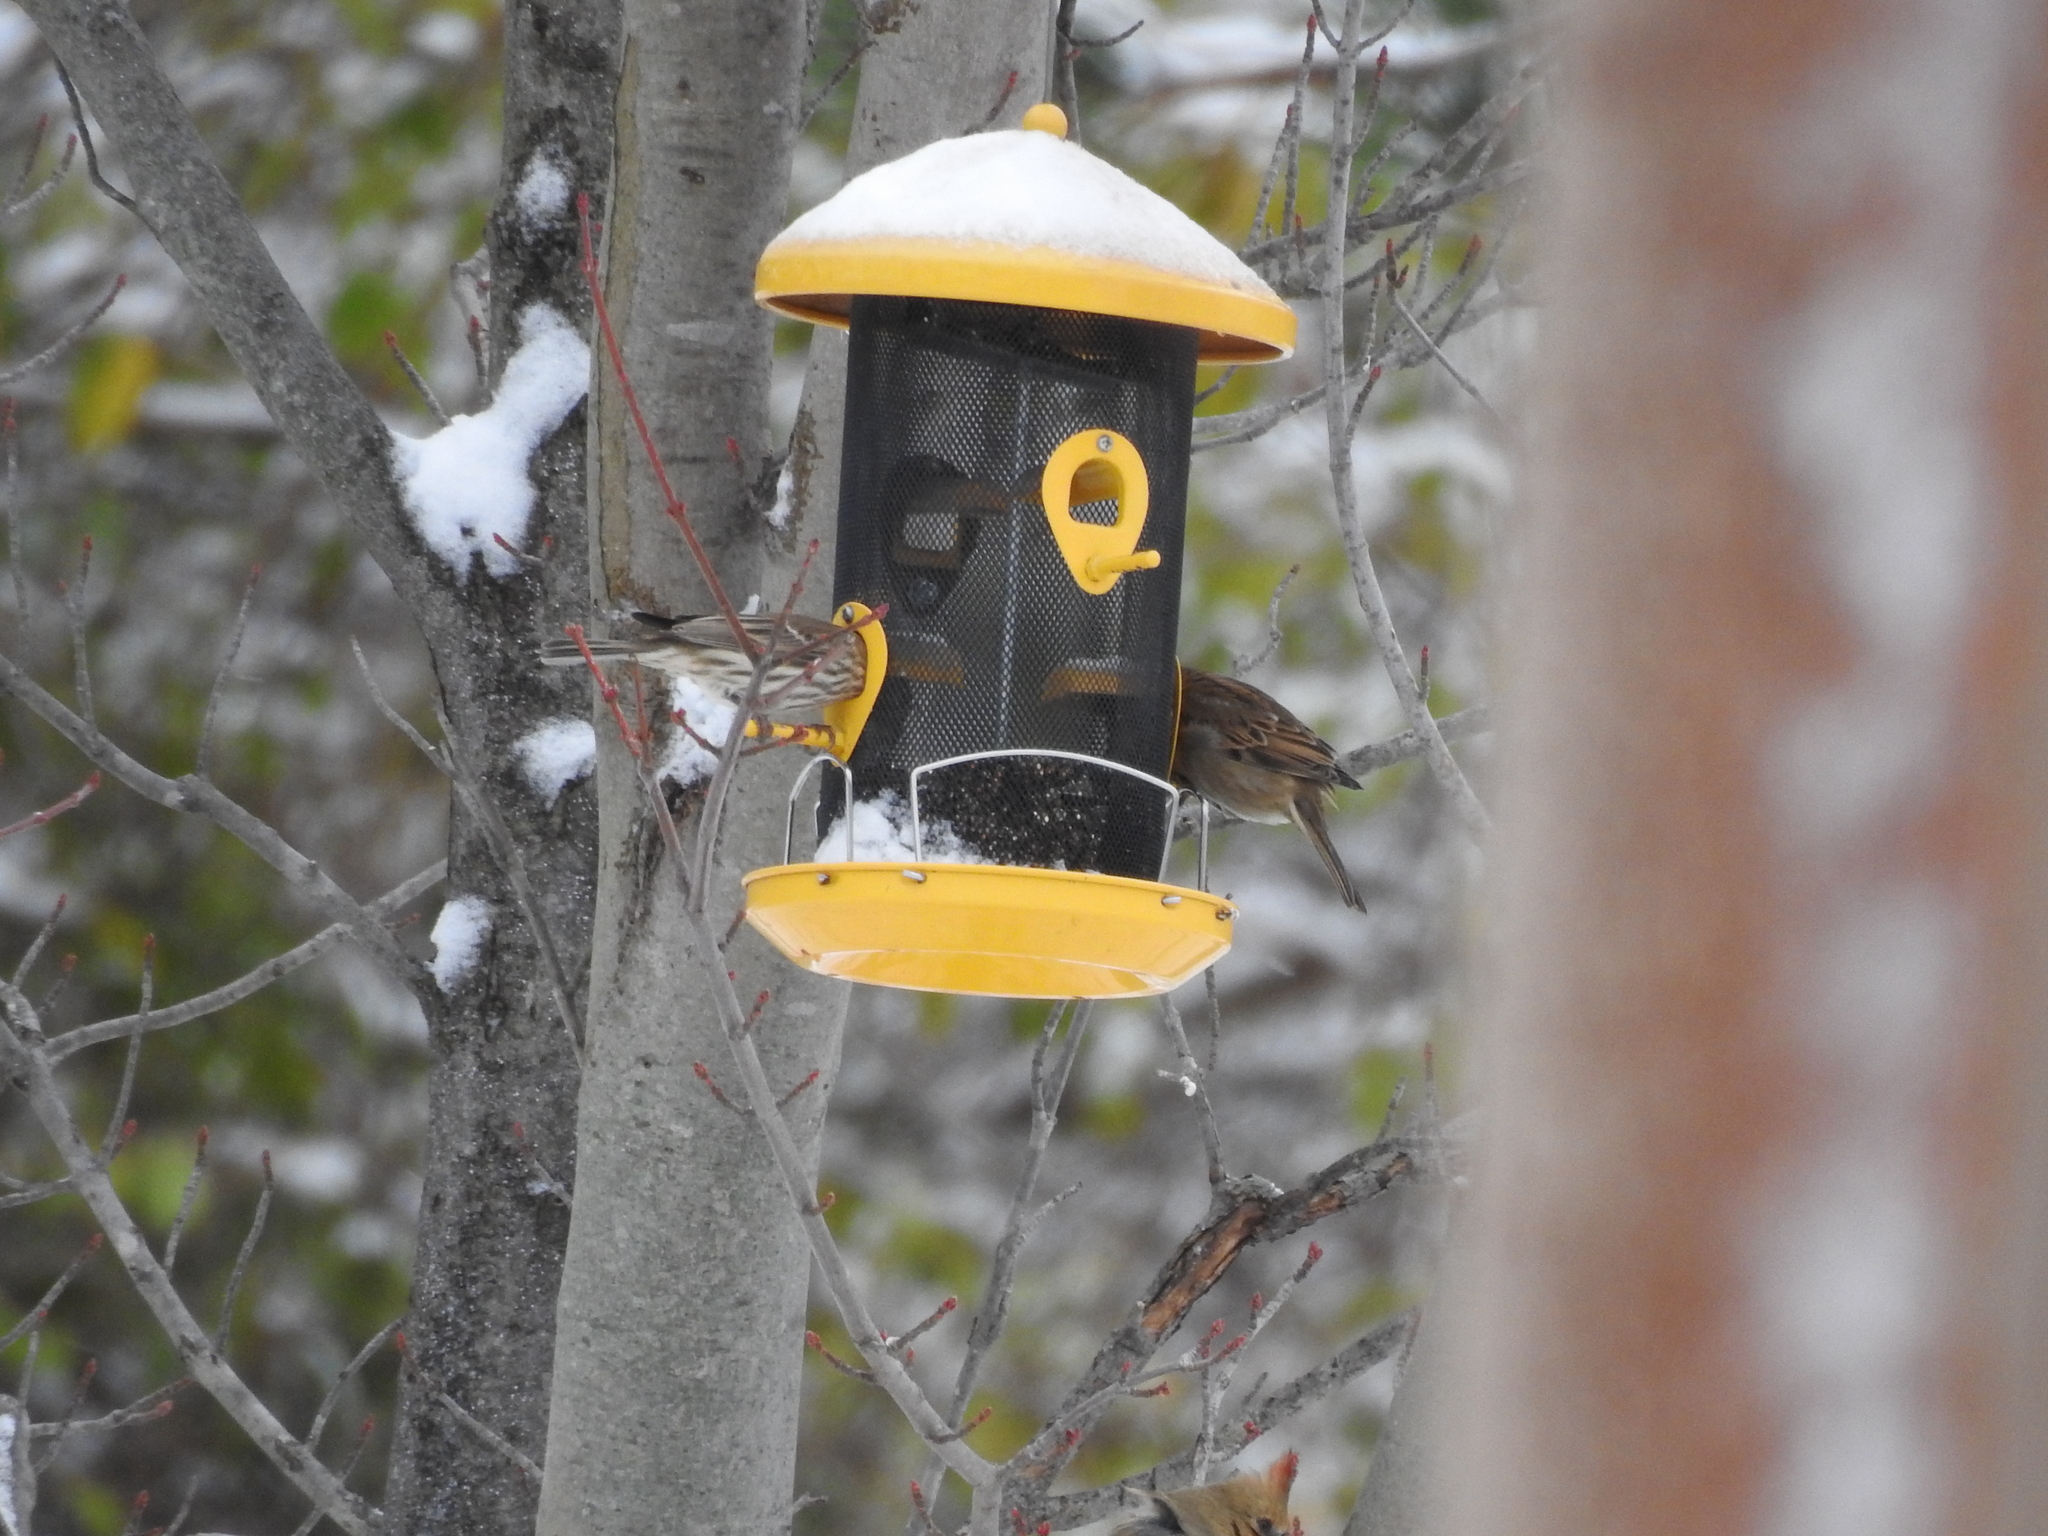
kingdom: Animalia
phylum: Chordata
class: Aves
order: Passeriformes
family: Fringillidae
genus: Haemorhous
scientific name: Haemorhous mexicanus
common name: House finch
